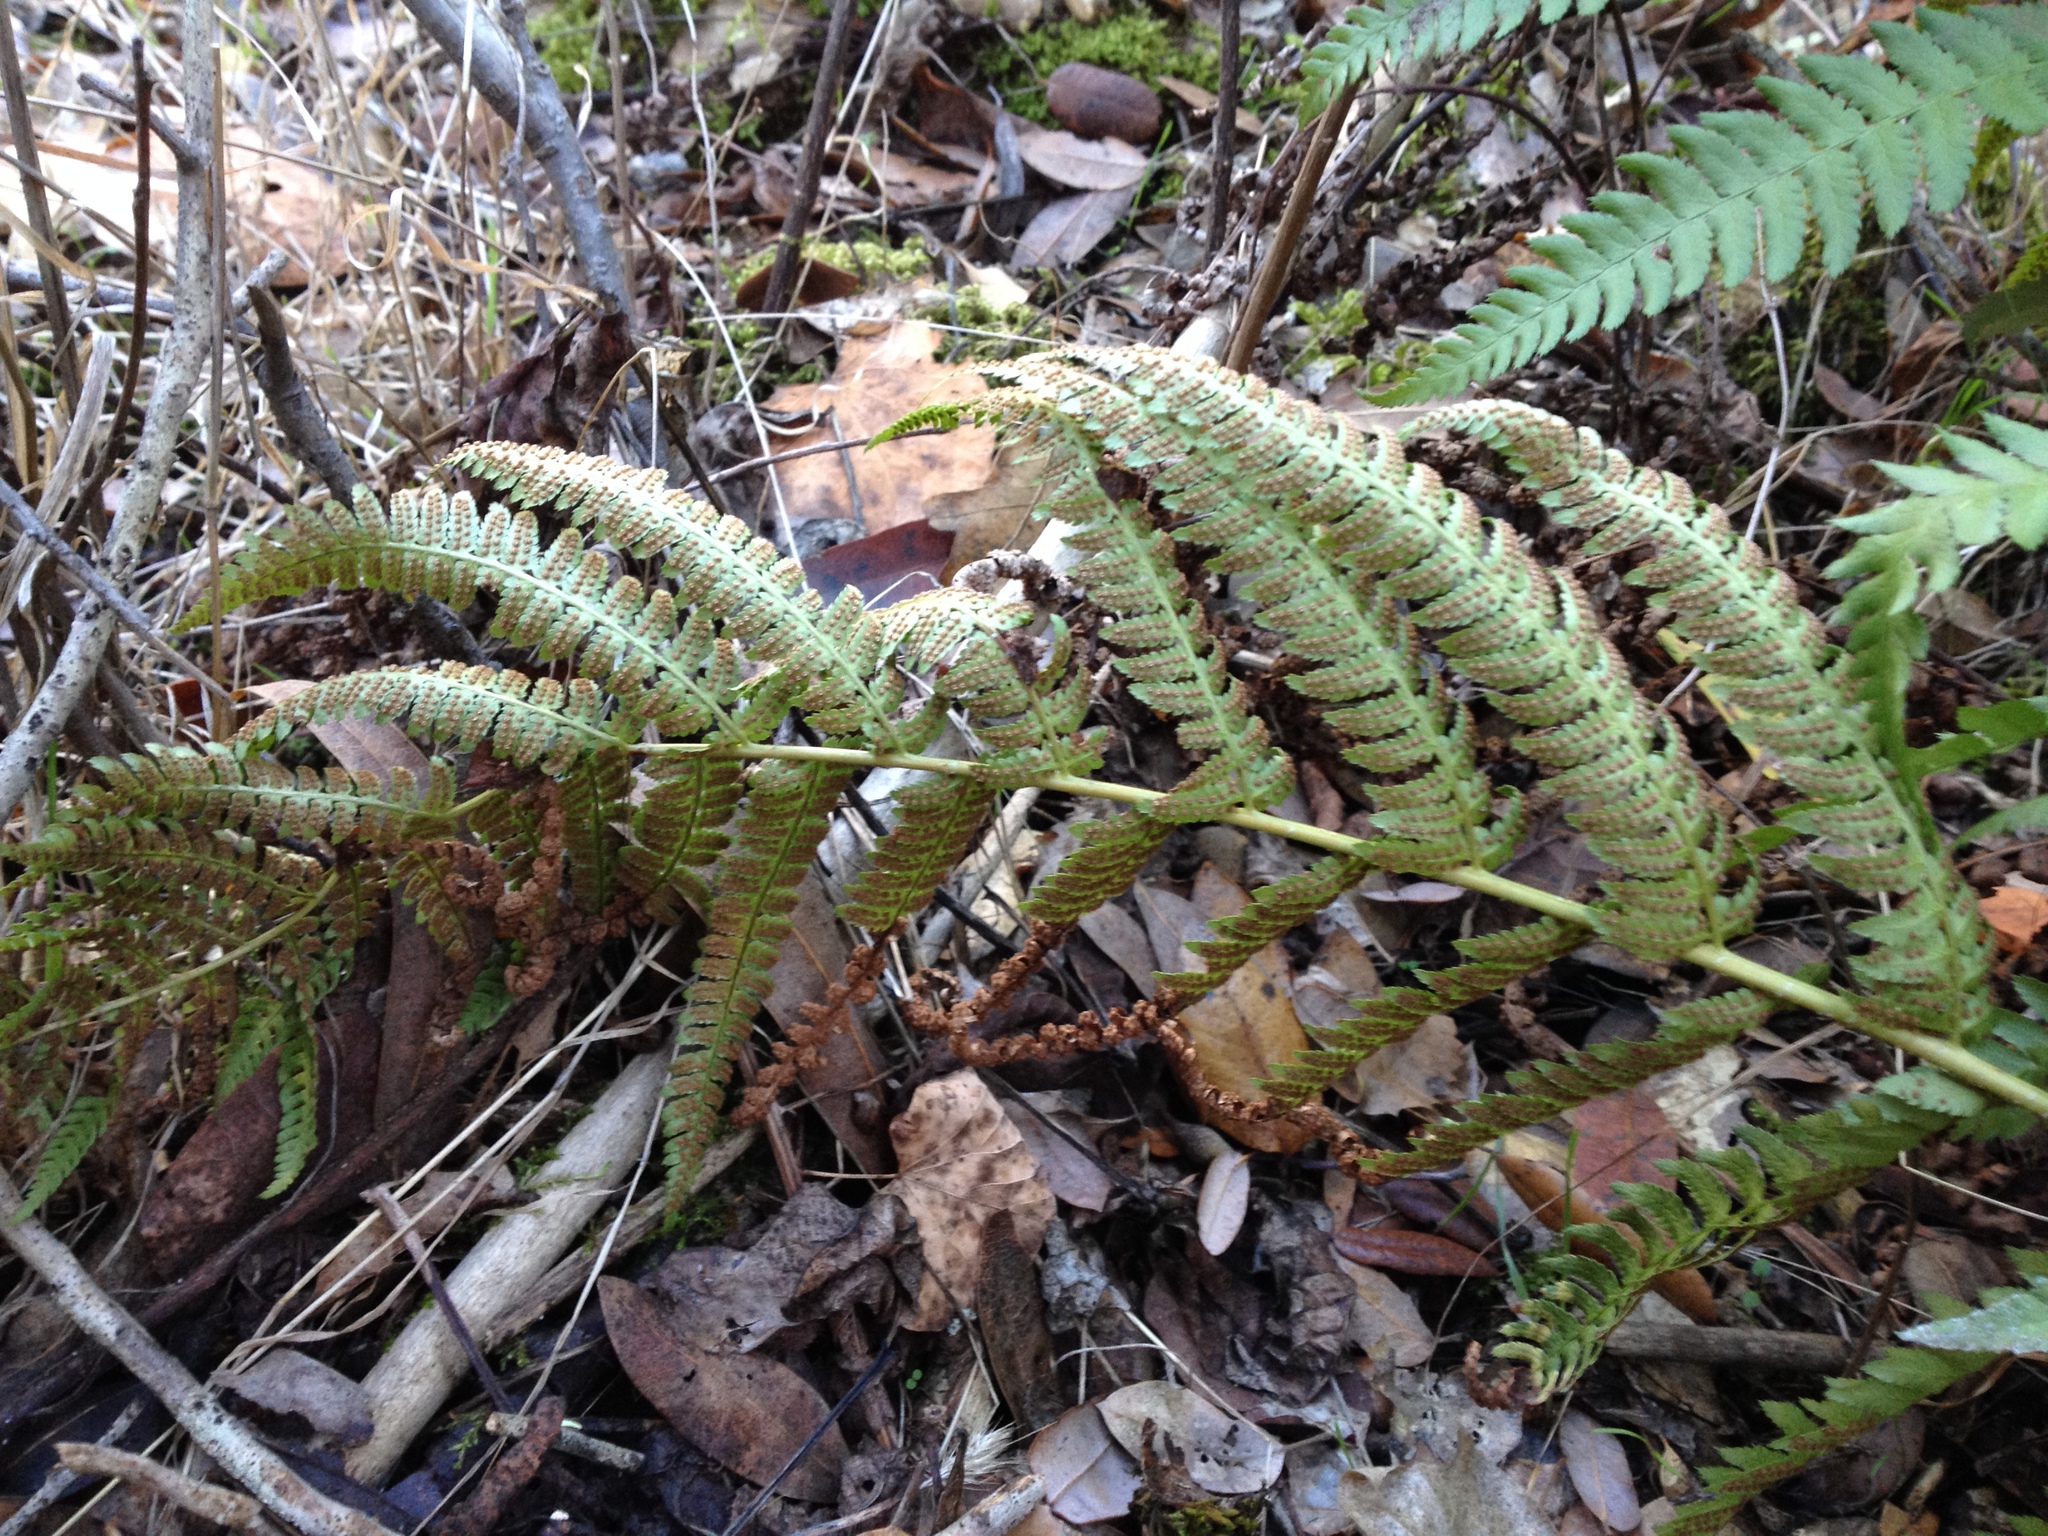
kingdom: Plantae
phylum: Tracheophyta
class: Polypodiopsida
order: Polypodiales
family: Dryopteridaceae
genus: Dryopteris
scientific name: Dryopteris arguta
